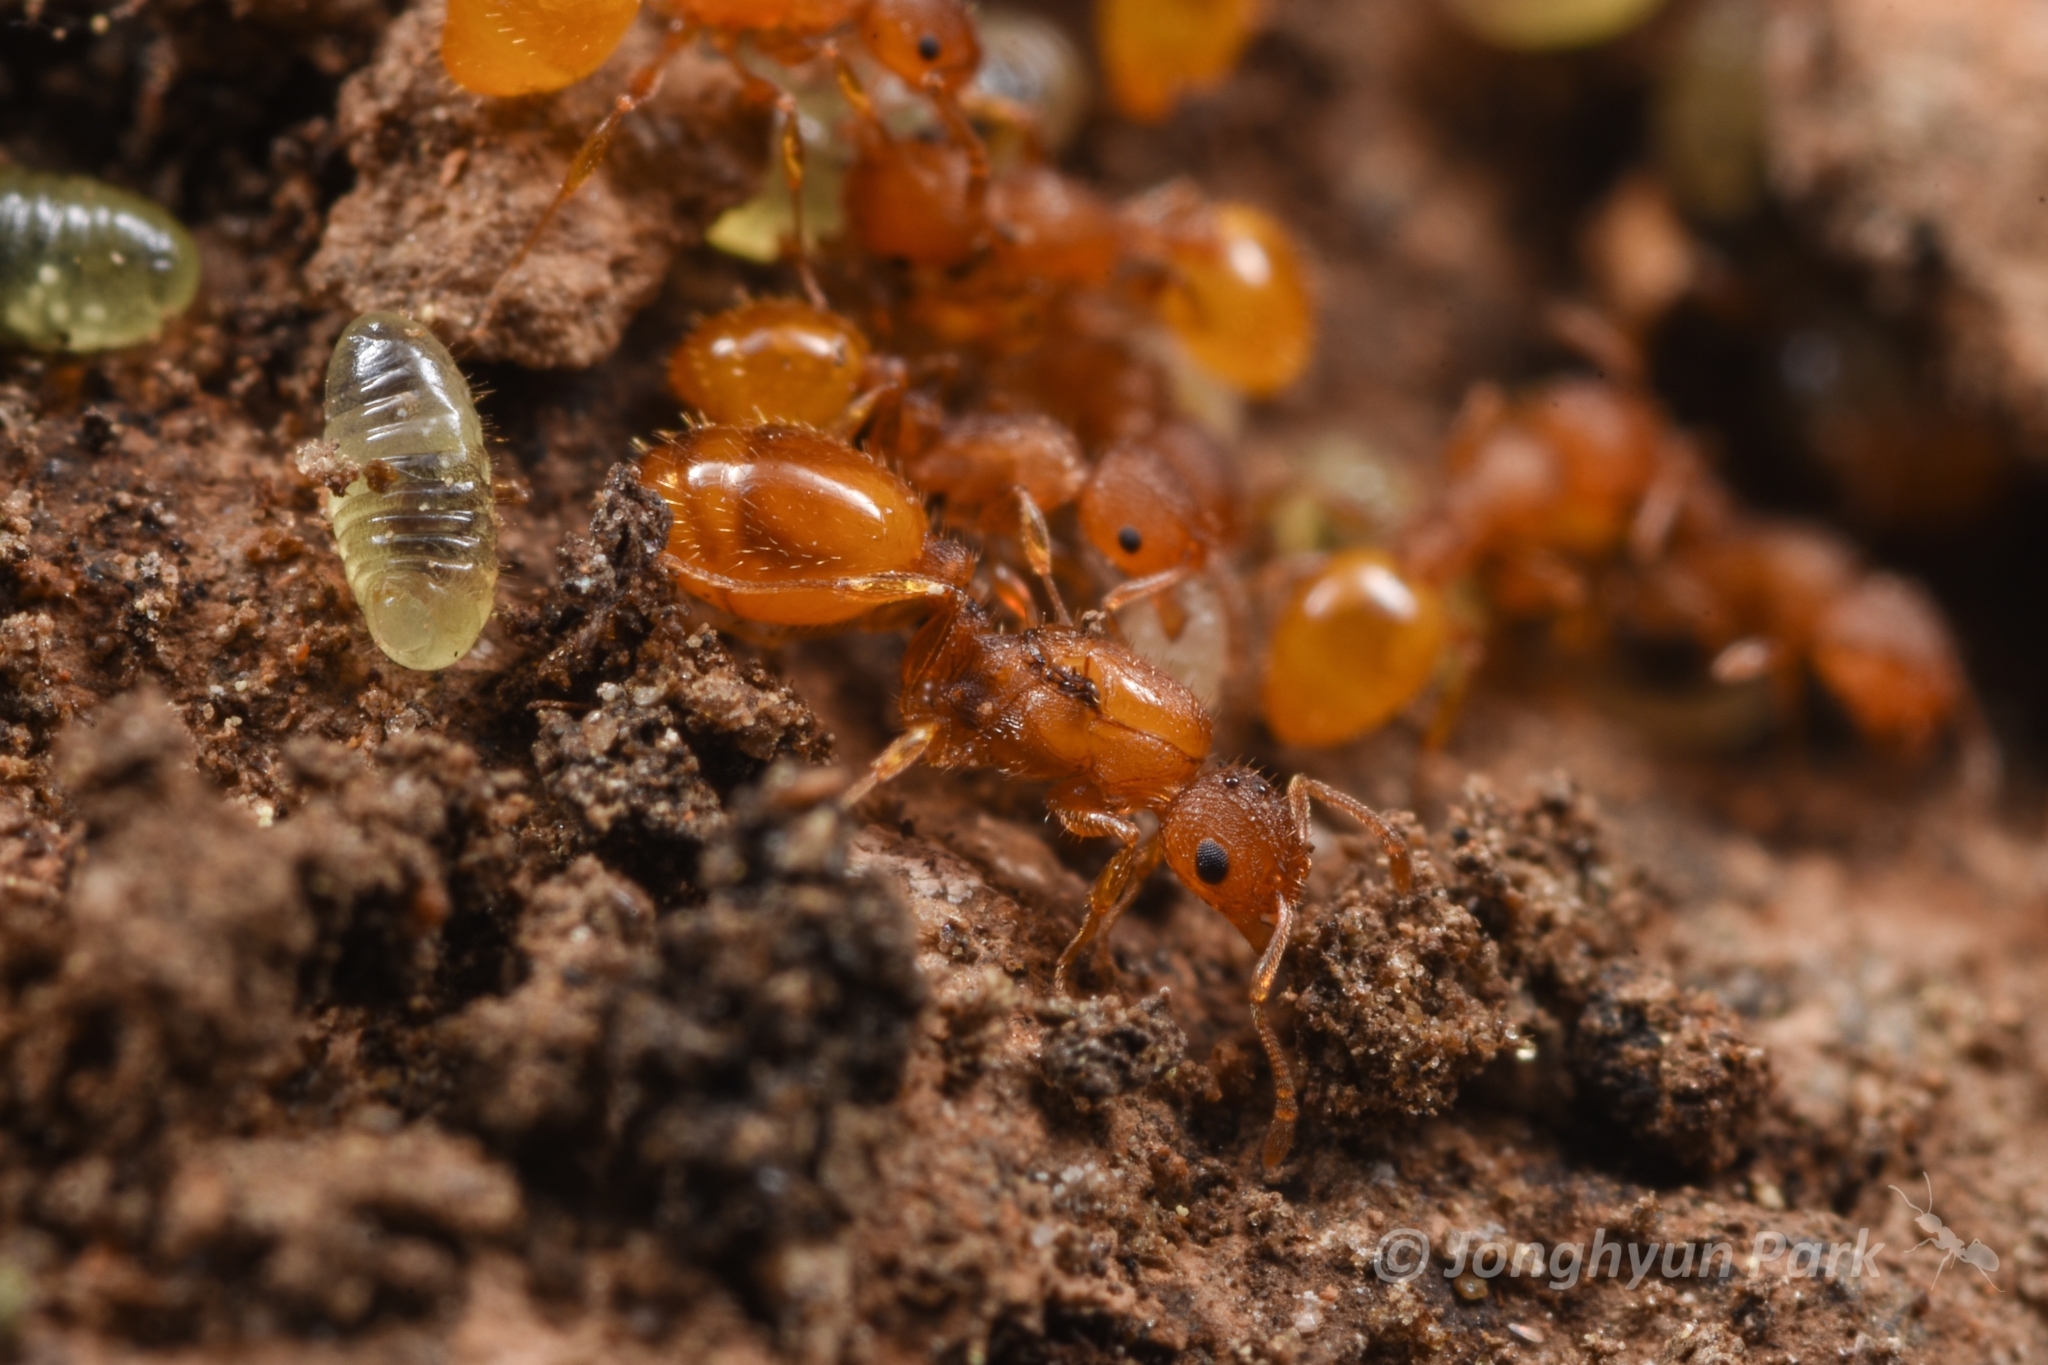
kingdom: Animalia
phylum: Arthropoda
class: Insecta
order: Hymenoptera
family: Formicidae
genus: Temnothorax
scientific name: Temnothorax
